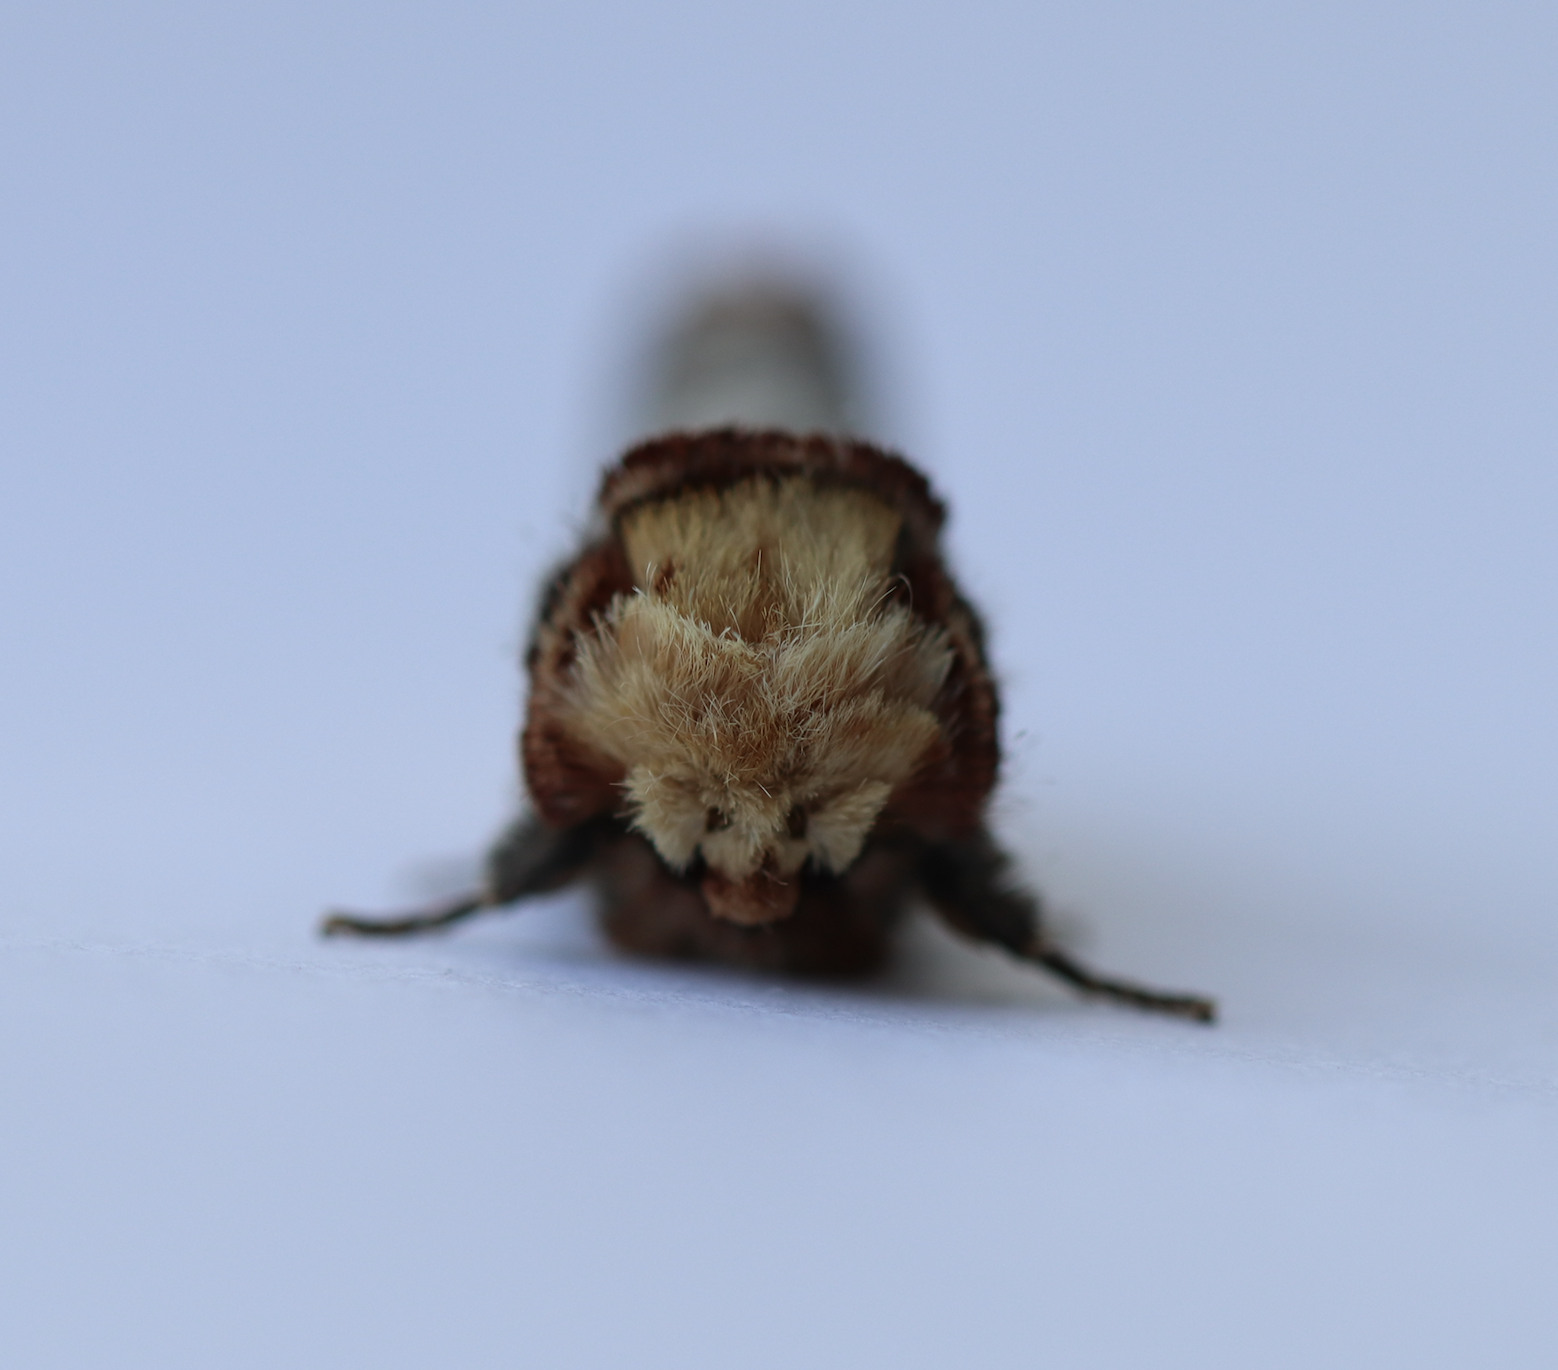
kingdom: Animalia
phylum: Arthropoda
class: Insecta
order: Lepidoptera
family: Notodontidae
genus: Phalera
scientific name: Phalera bucephala
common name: Buff-tip
